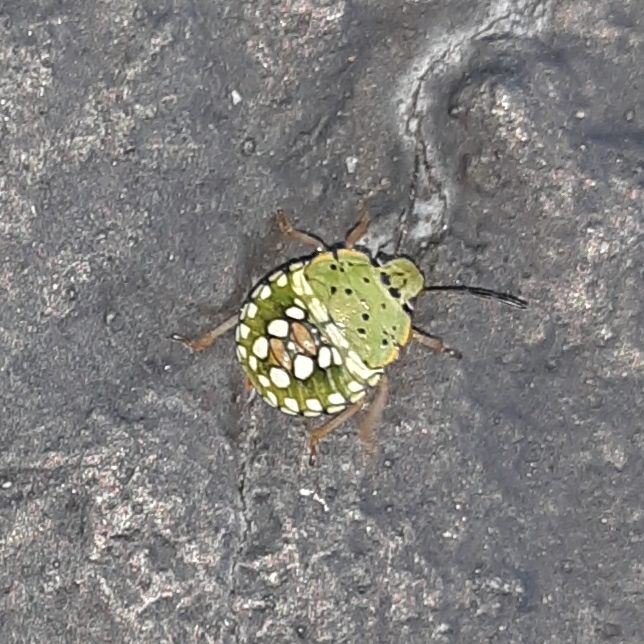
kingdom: Animalia
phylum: Arthropoda
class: Insecta
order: Hemiptera
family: Pentatomidae
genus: Nezara
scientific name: Nezara viridula
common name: Southern green stink bug
